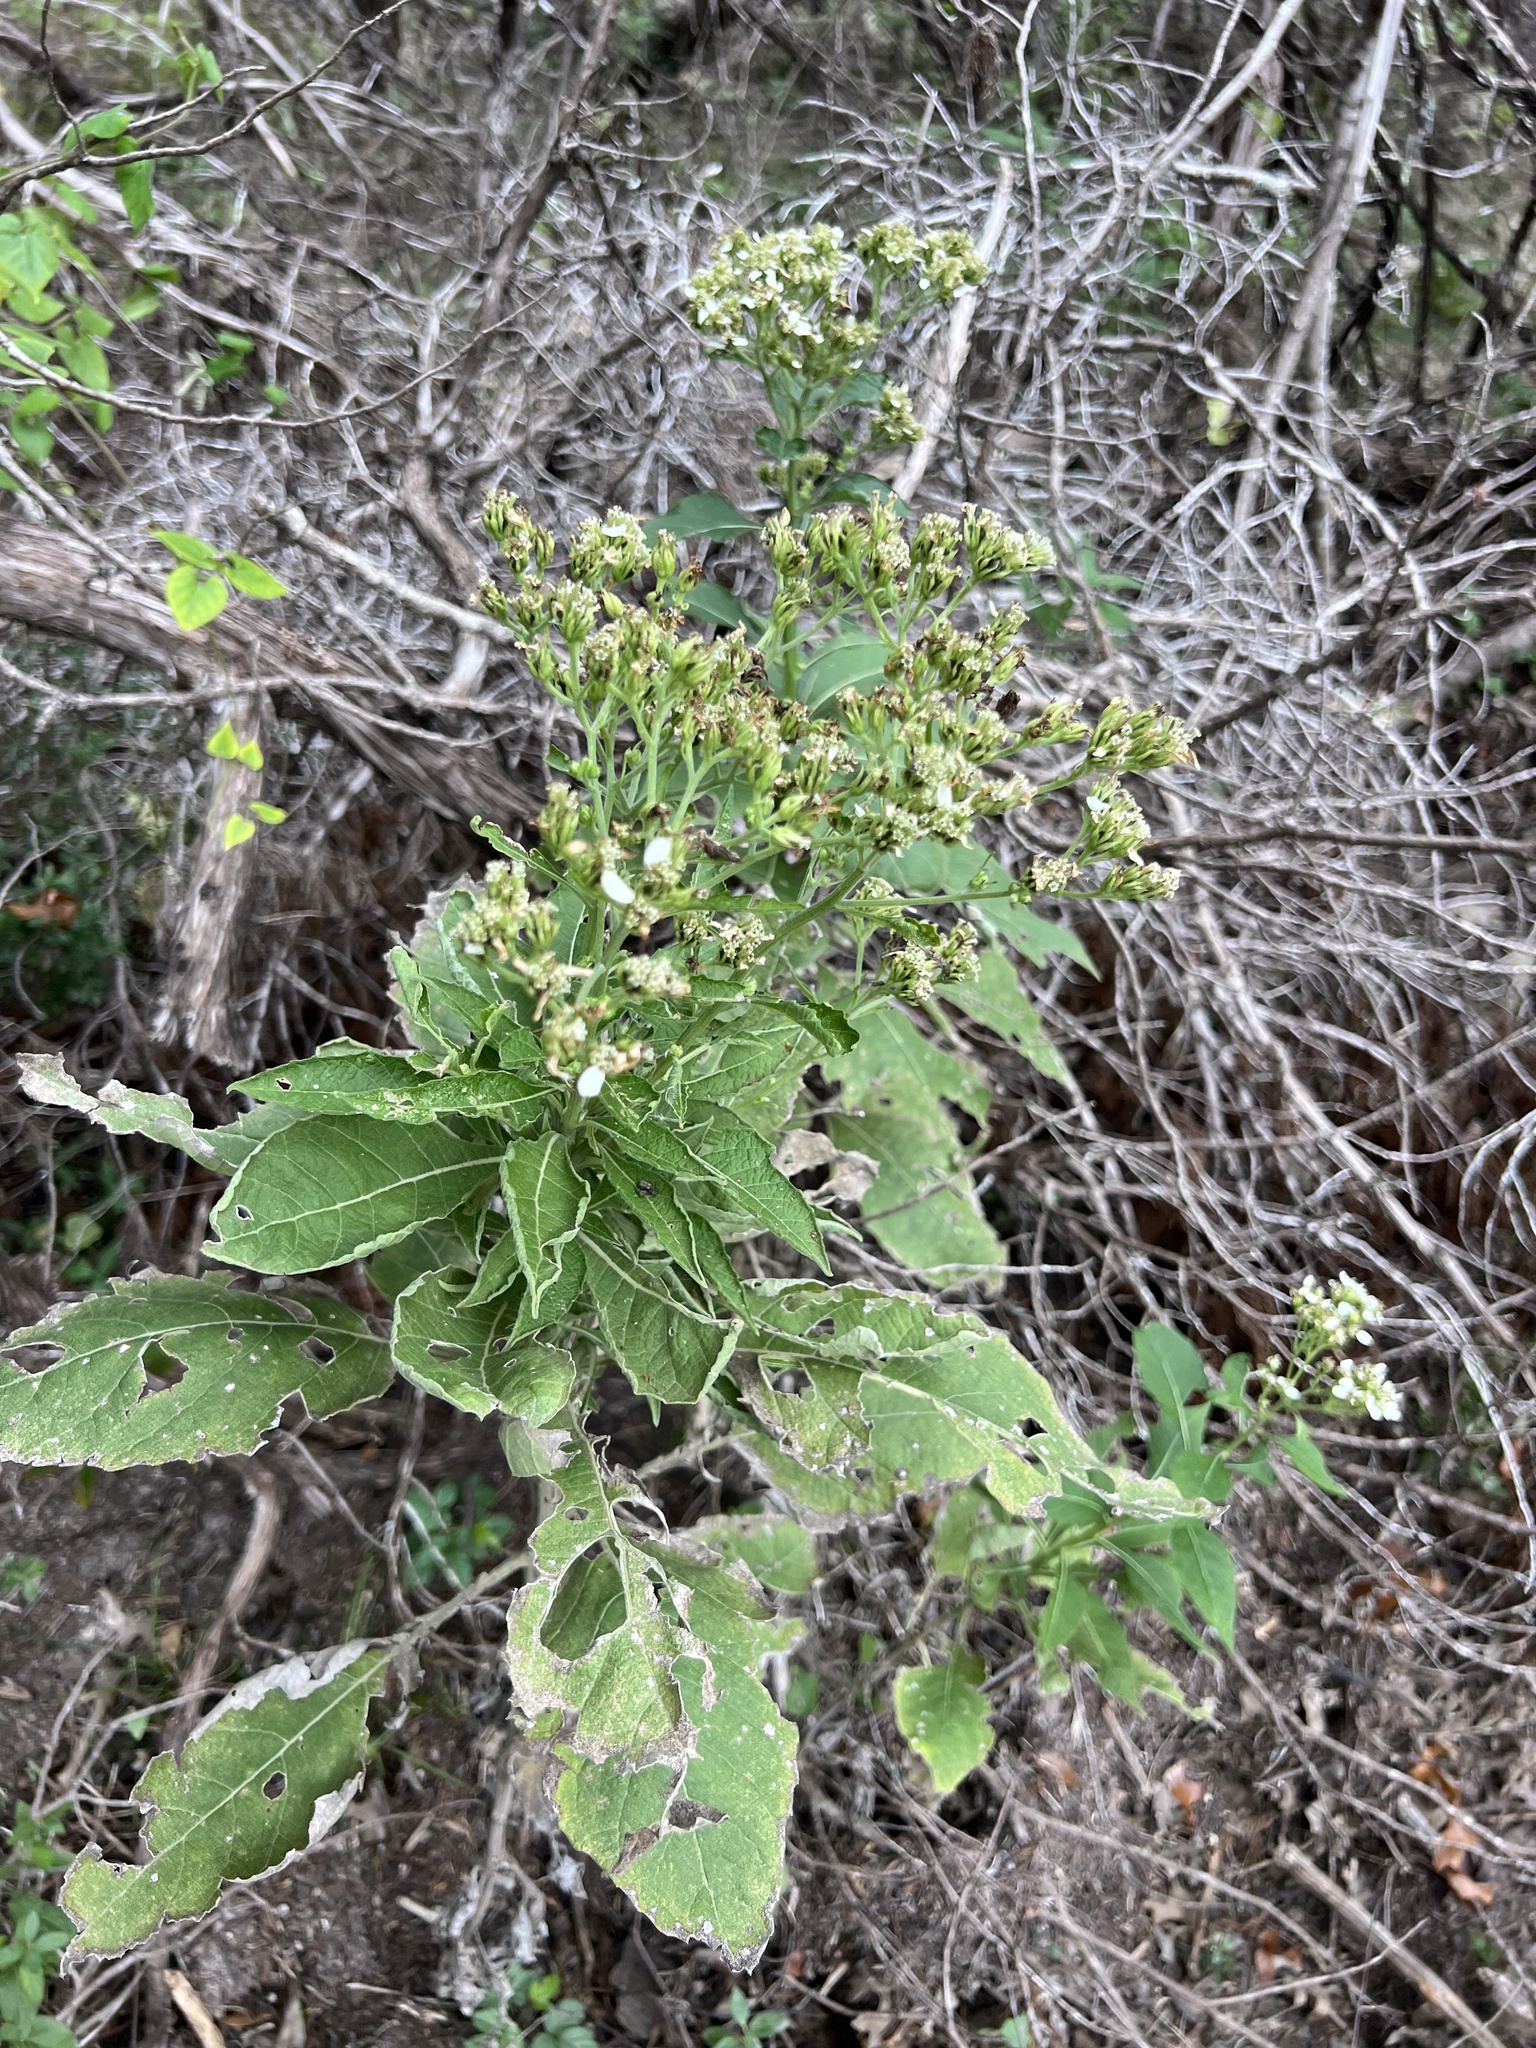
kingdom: Plantae
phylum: Tracheophyta
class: Magnoliopsida
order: Asterales
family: Asteraceae
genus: Verbesina
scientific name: Verbesina virginica
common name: Frostweed
